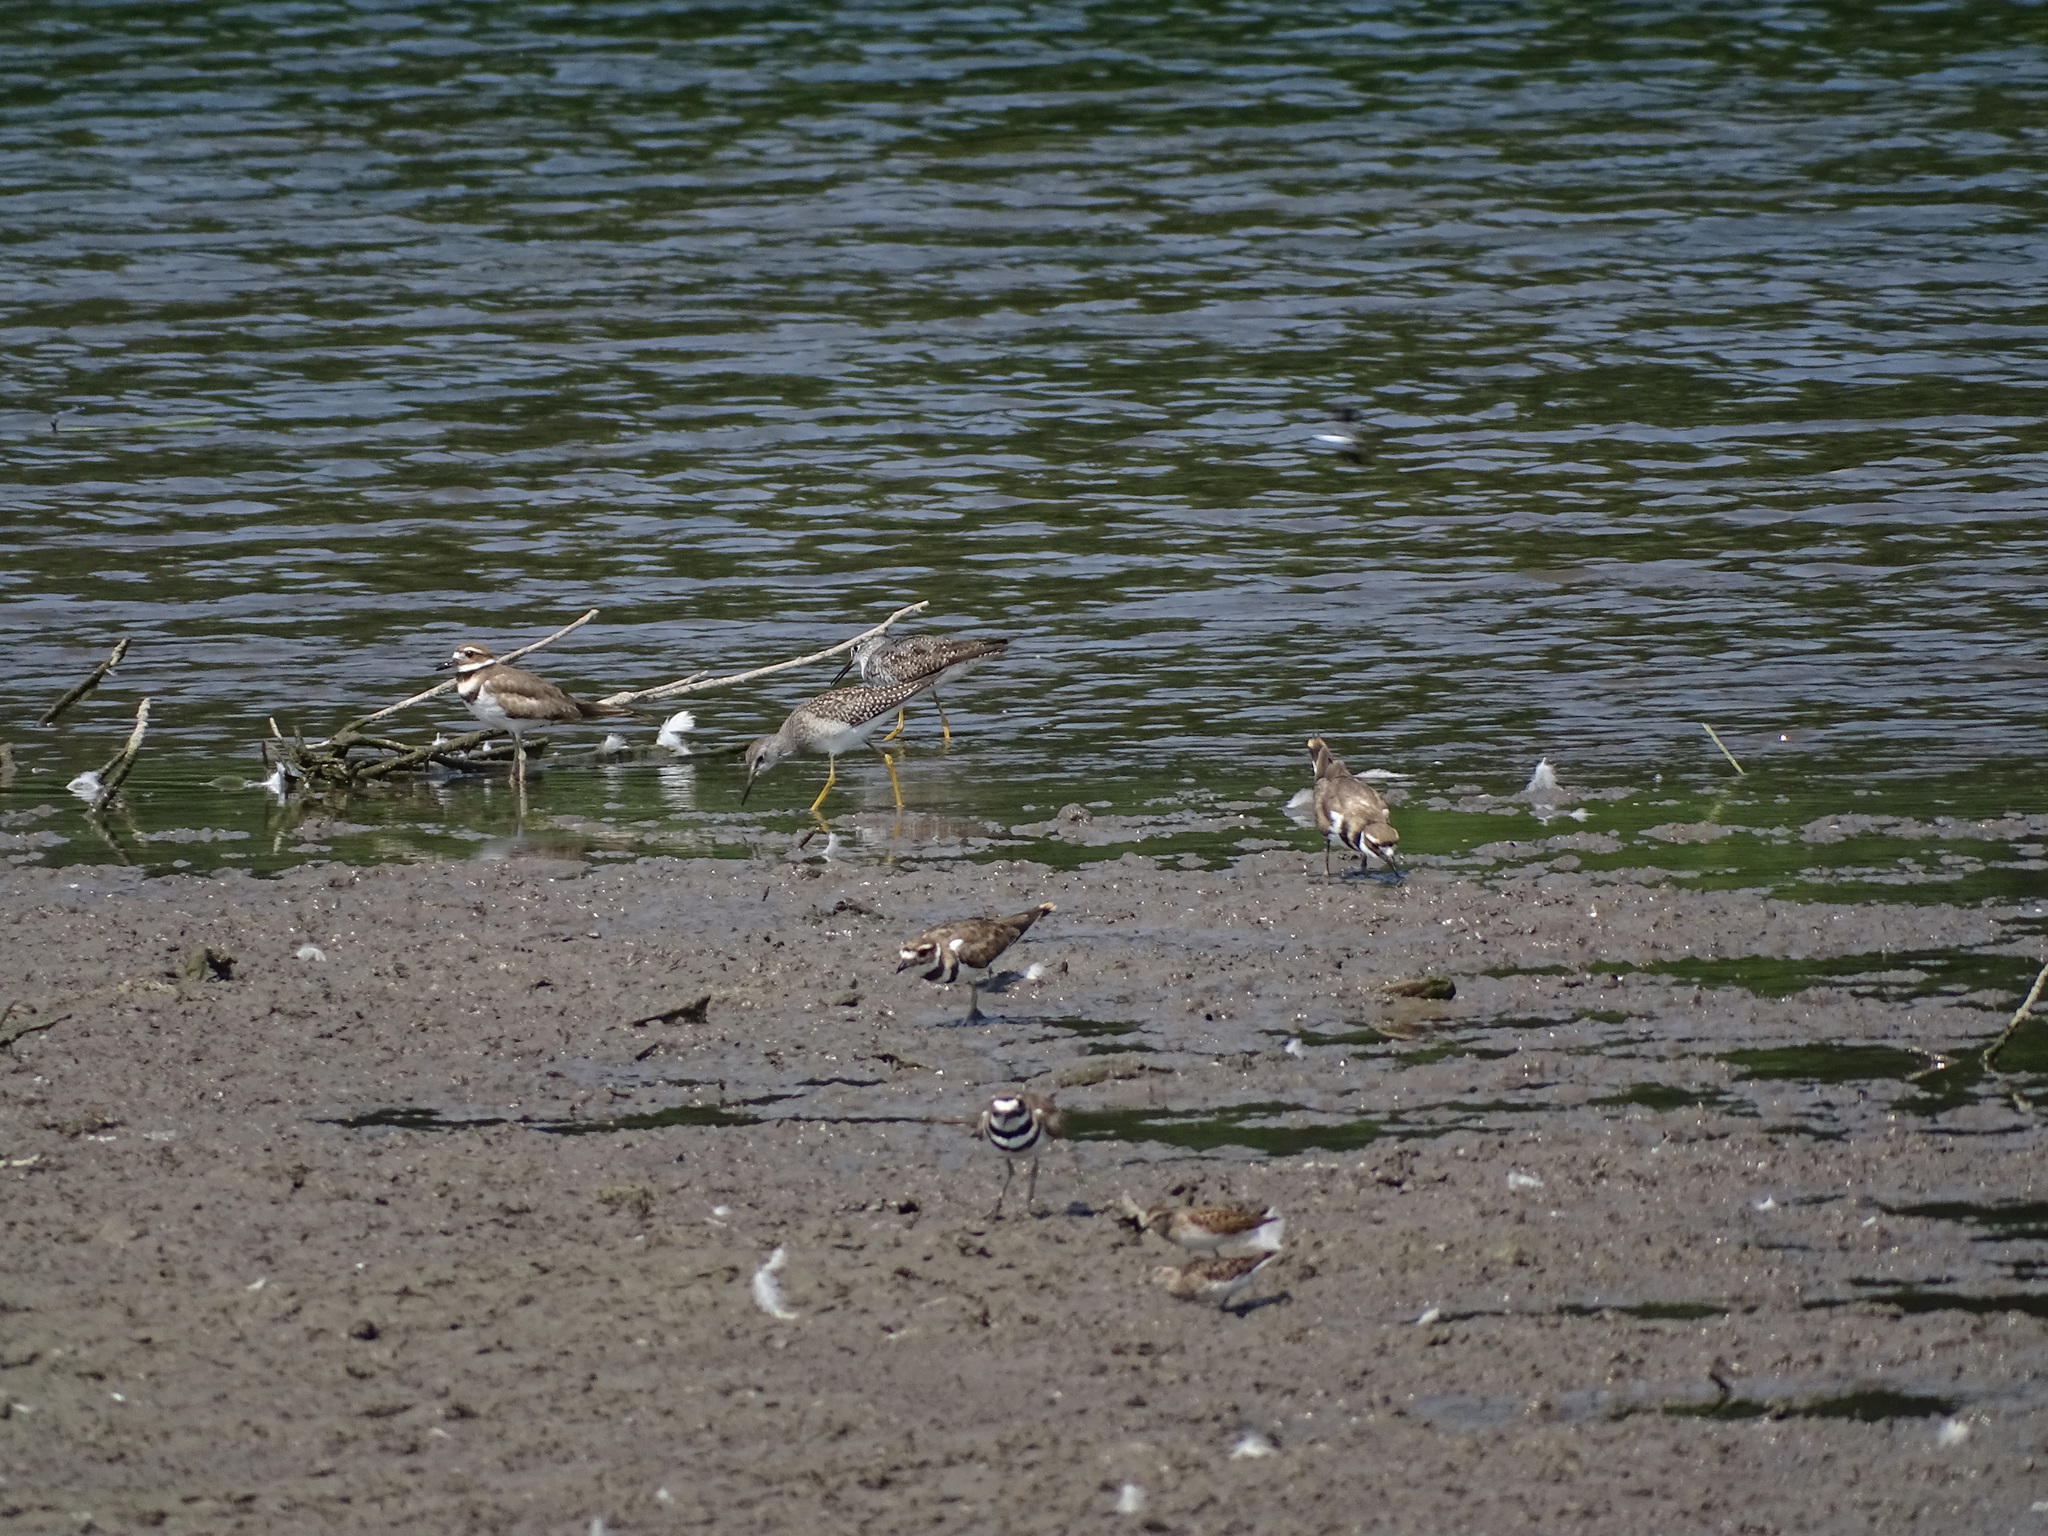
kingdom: Animalia
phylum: Chordata
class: Aves
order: Charadriiformes
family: Charadriidae
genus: Charadrius
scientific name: Charadrius vociferus
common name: Killdeer
